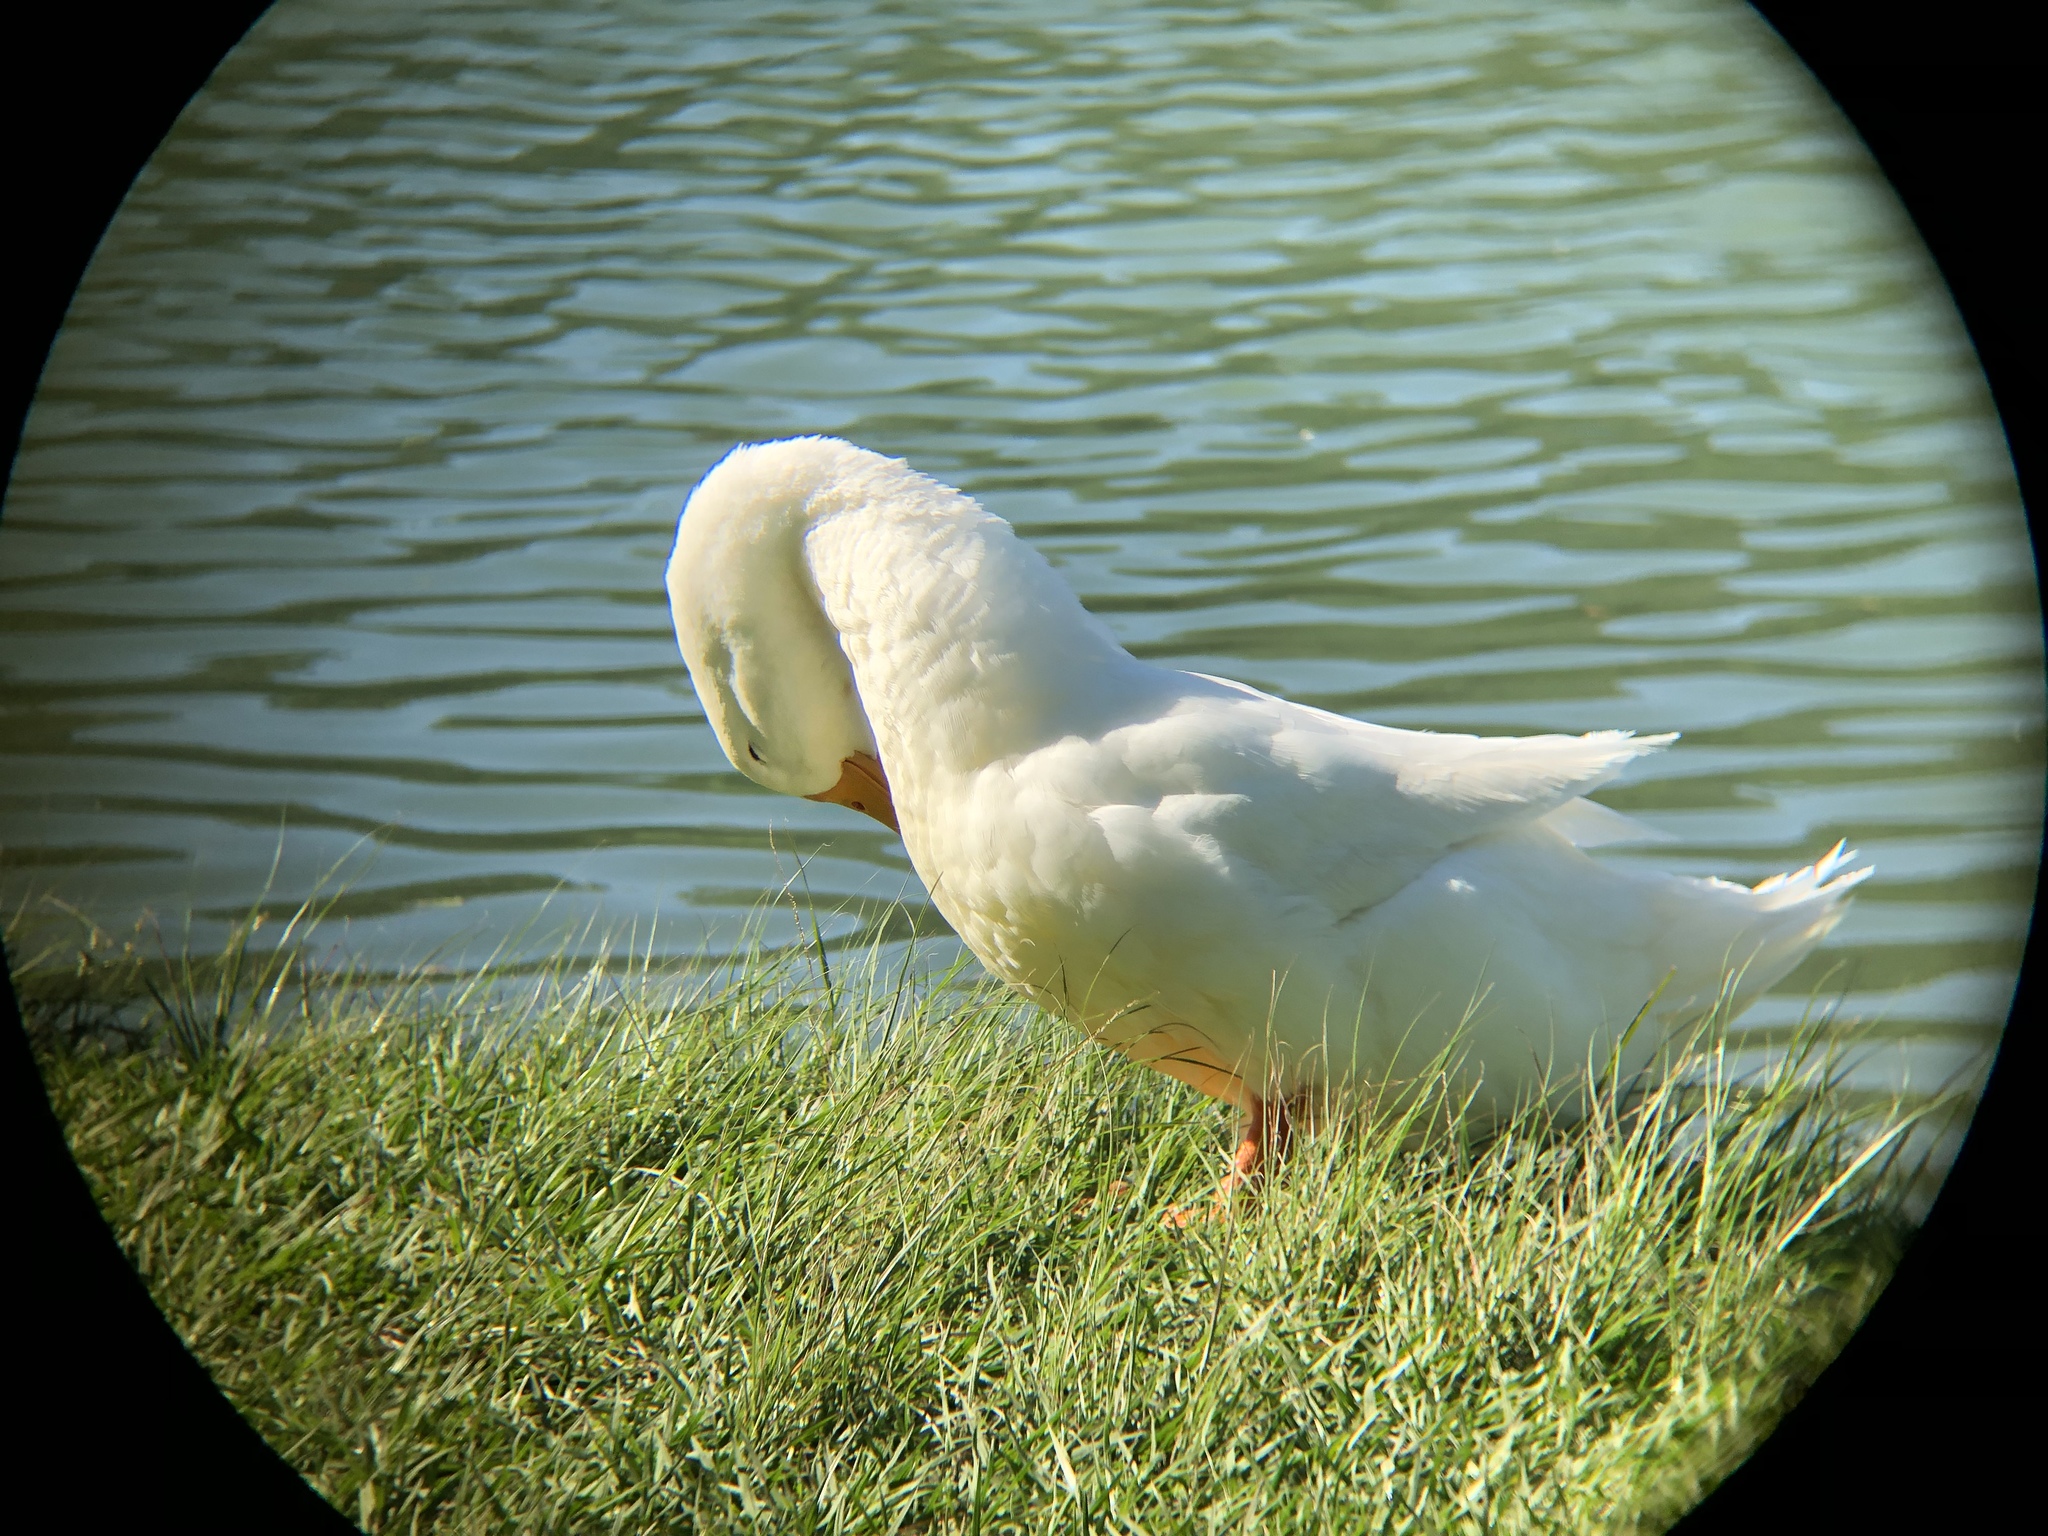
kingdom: Animalia
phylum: Chordata
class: Aves
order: Anseriformes
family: Anatidae
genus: Anas
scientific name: Anas platyrhynchos
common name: Mallard
